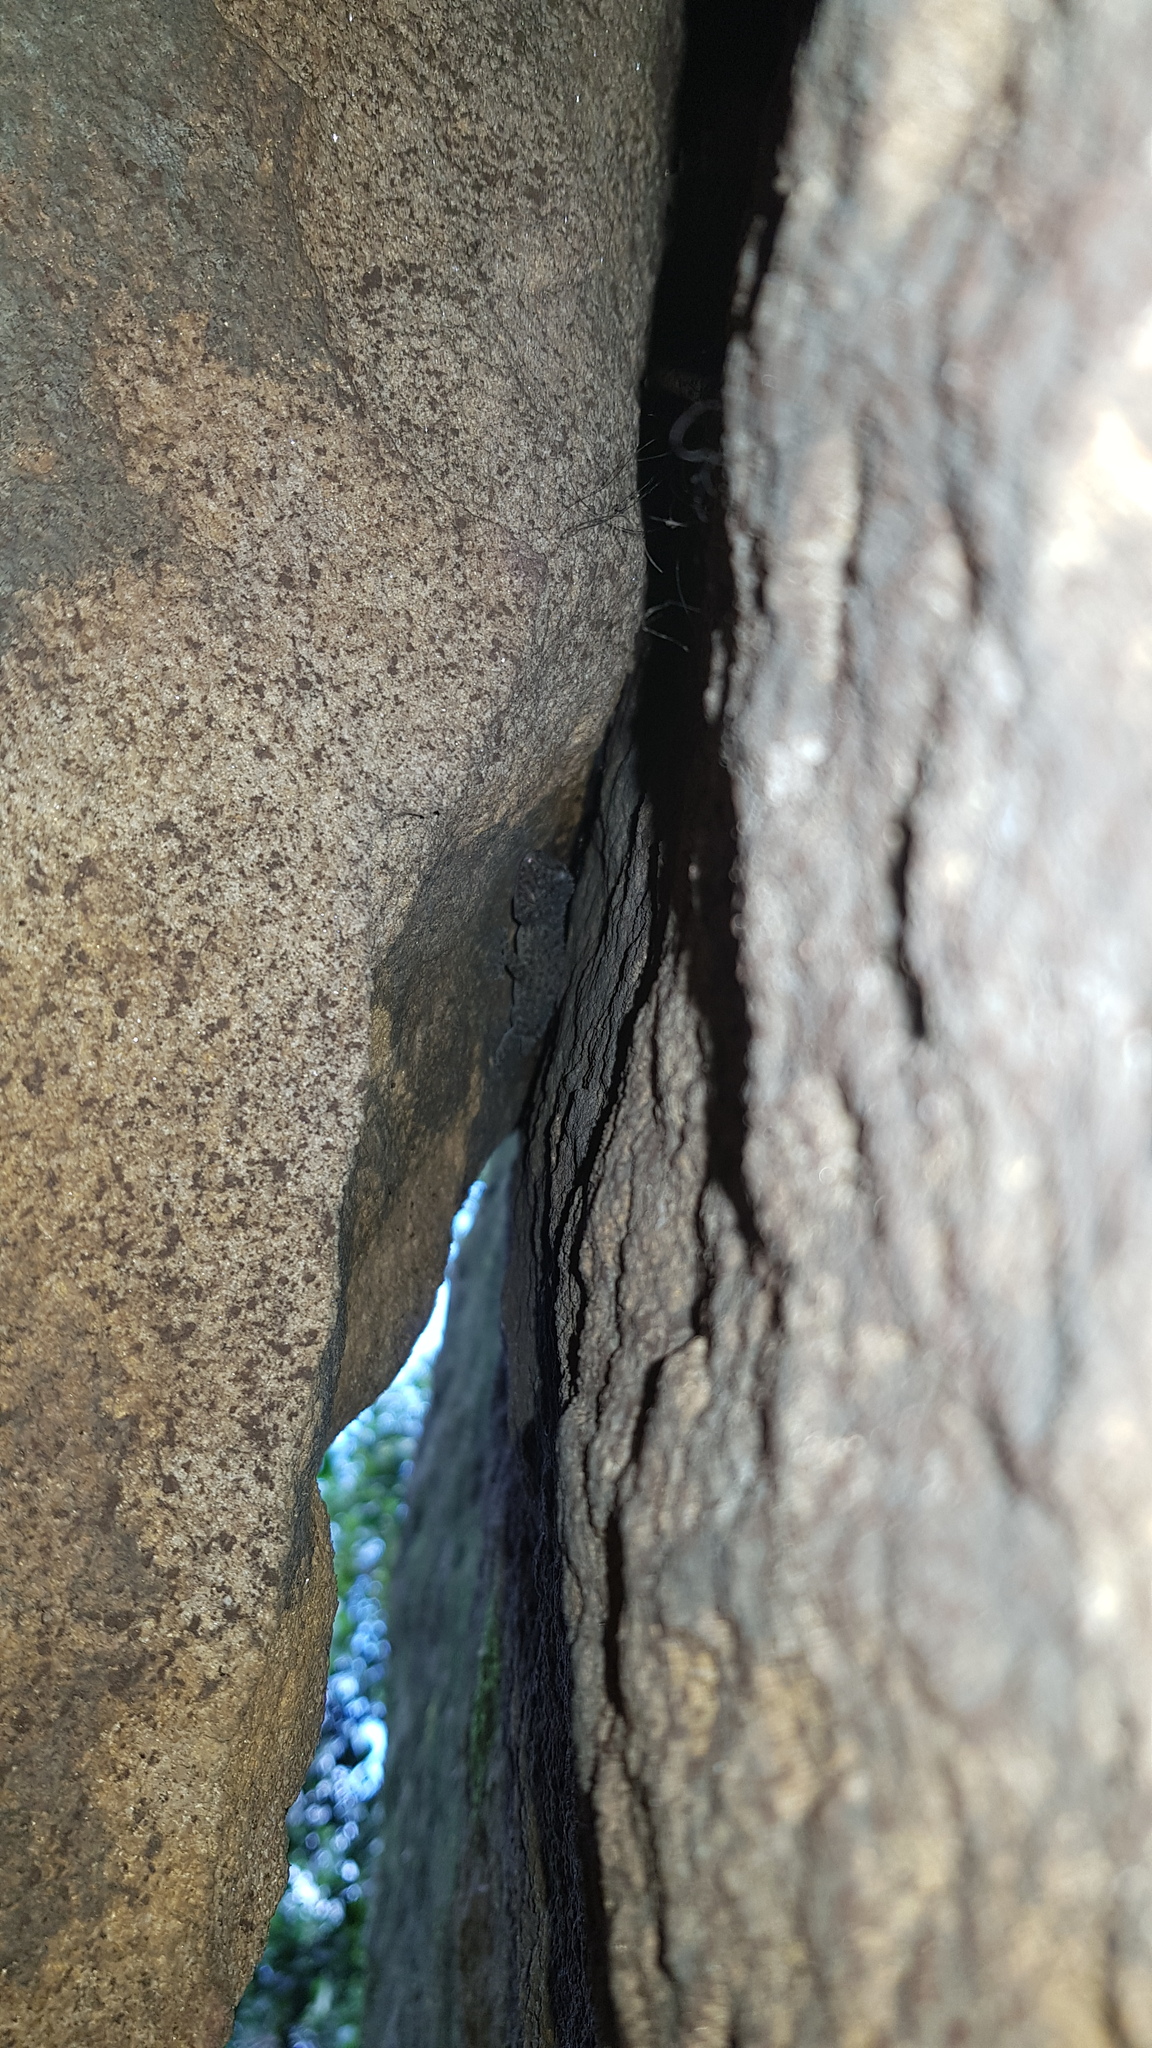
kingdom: Animalia
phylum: Chordata
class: Squamata
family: Carphodactylidae
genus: Phyllurus
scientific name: Phyllurus platurus
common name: Broad-tailed gecko
